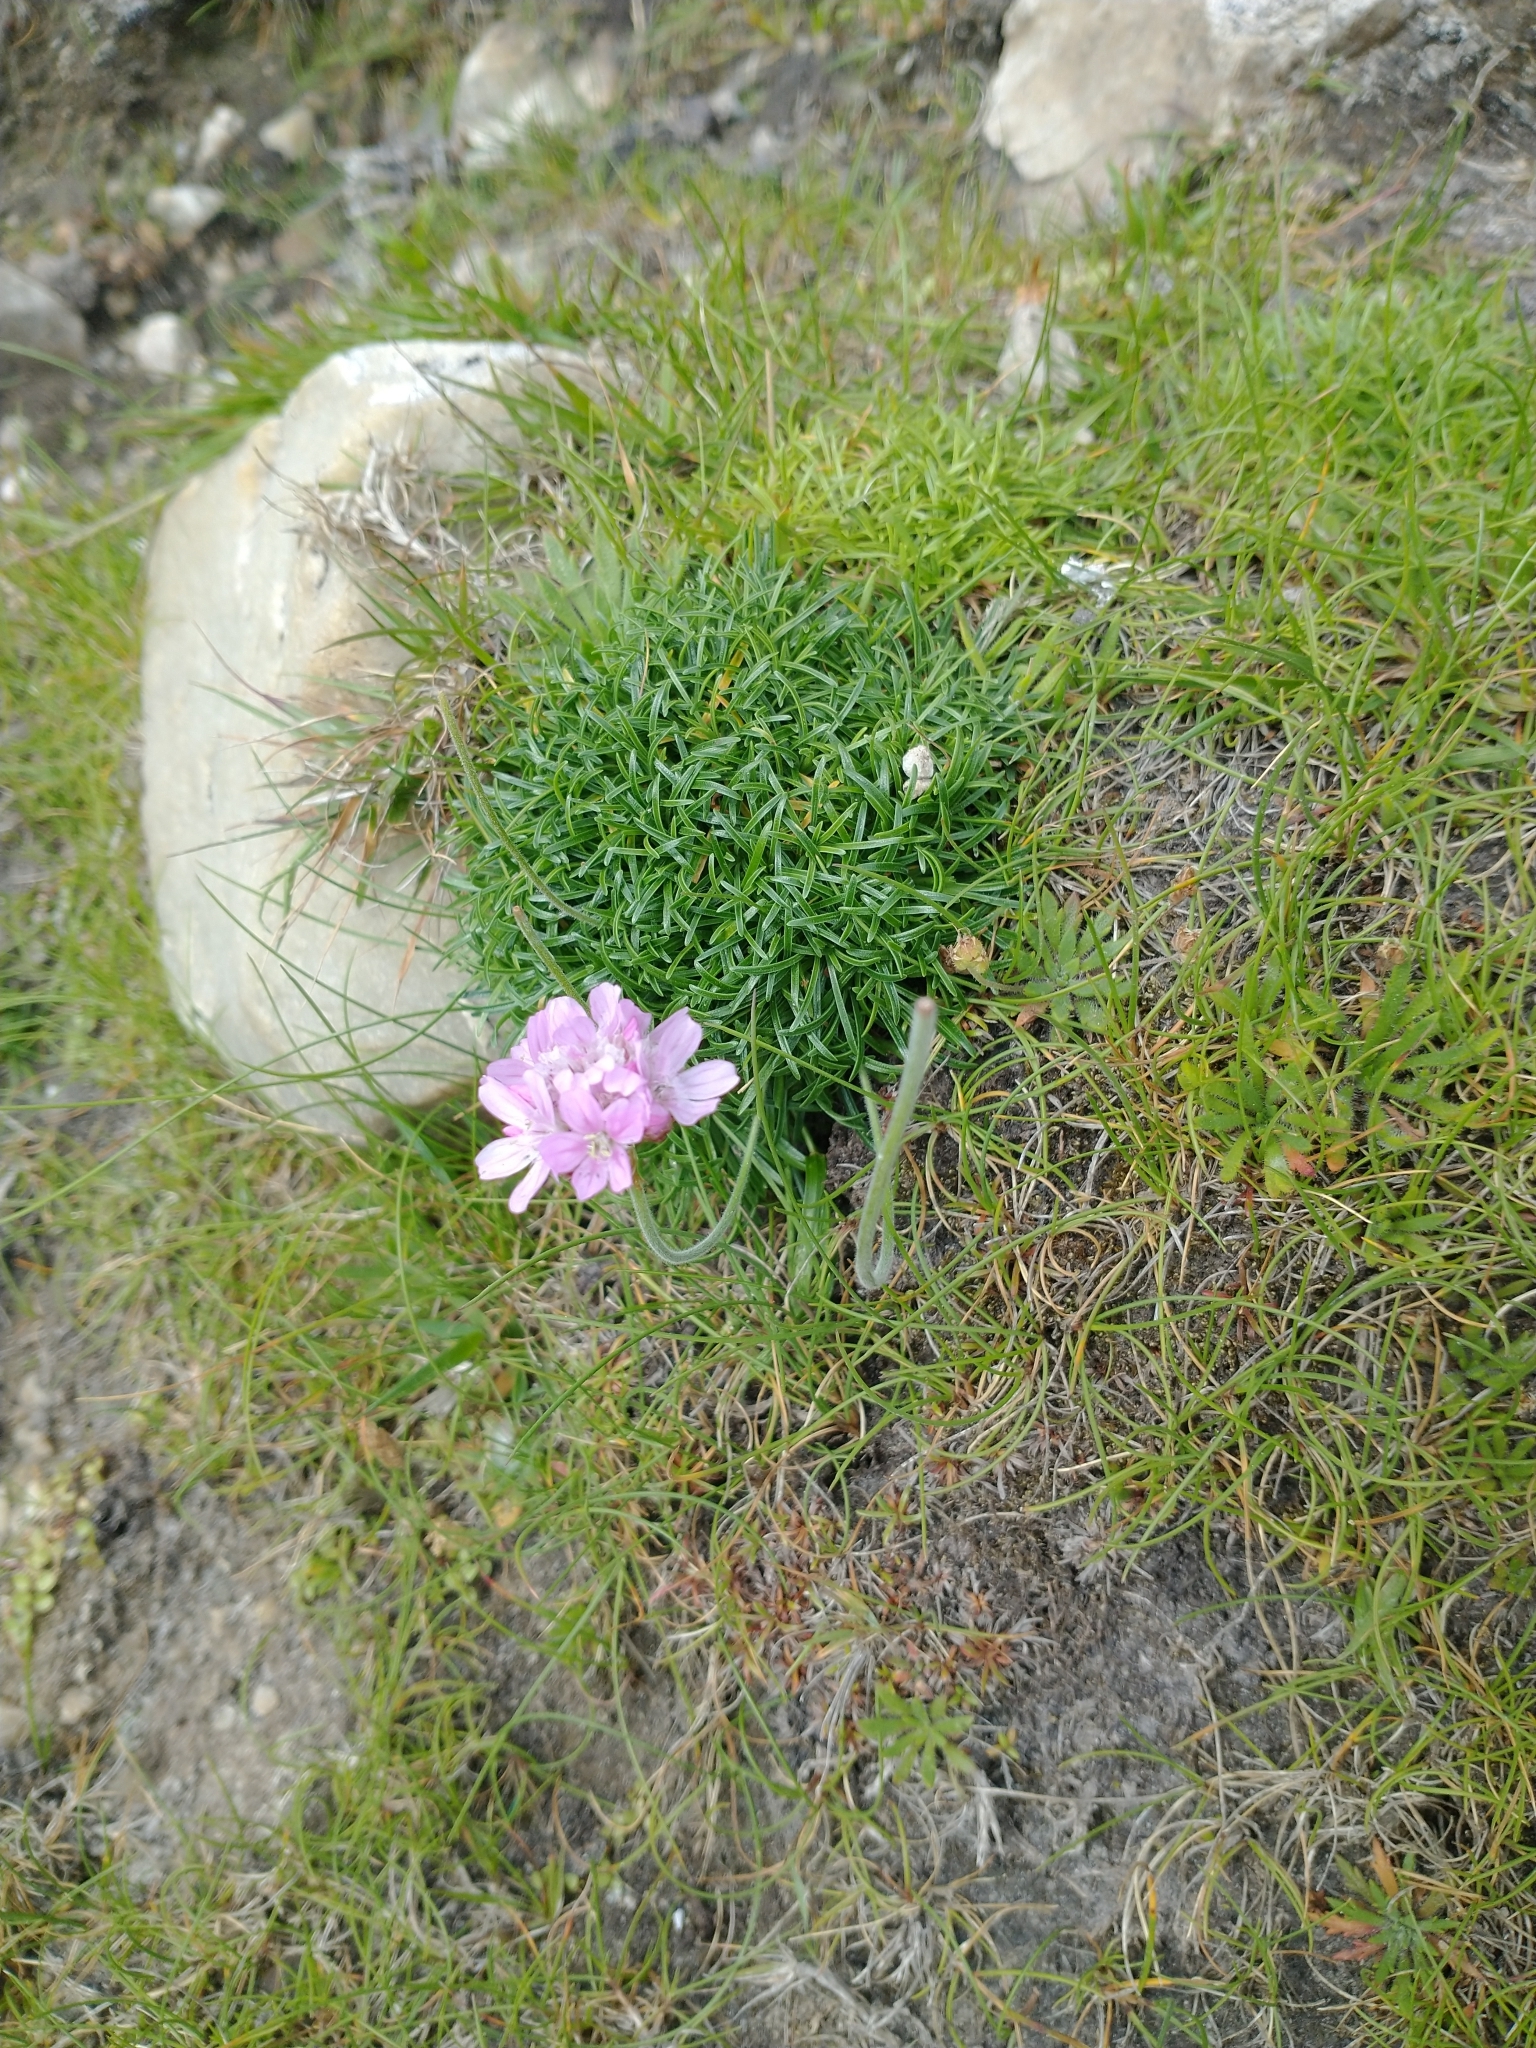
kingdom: Plantae
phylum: Tracheophyta
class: Magnoliopsida
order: Caryophyllales
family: Plumbaginaceae
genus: Armeria
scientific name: Armeria maritima
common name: Thrift
